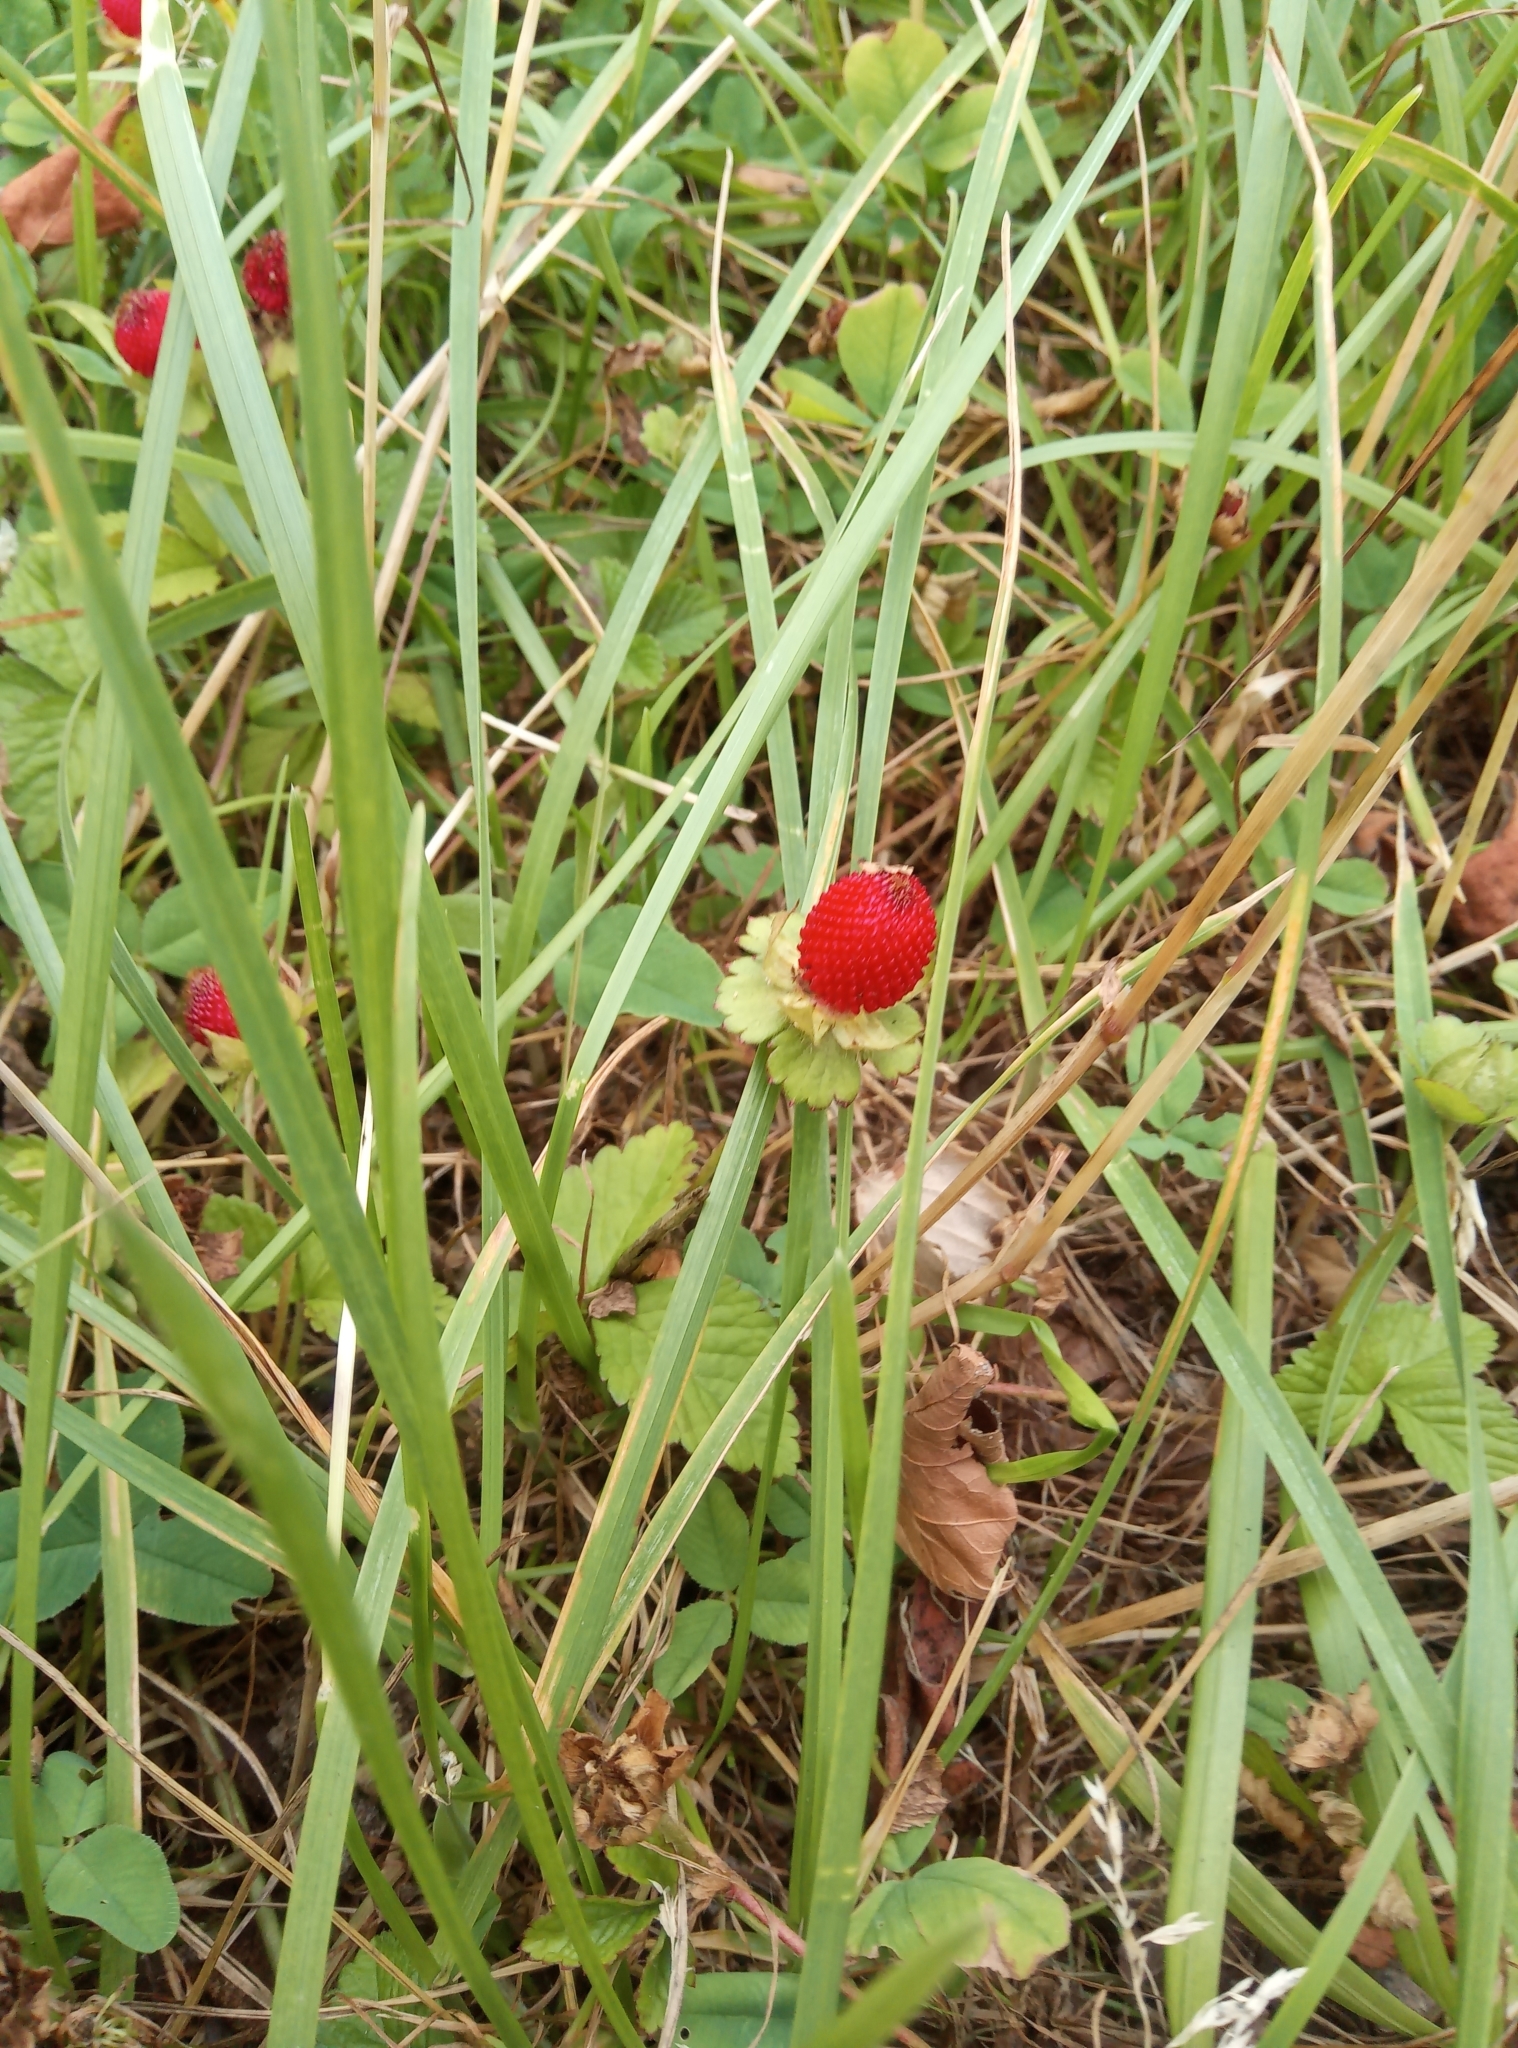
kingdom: Plantae
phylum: Tracheophyta
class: Magnoliopsida
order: Rosales
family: Rosaceae
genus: Potentilla
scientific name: Potentilla indica
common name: Yellow-flowered strawberry
